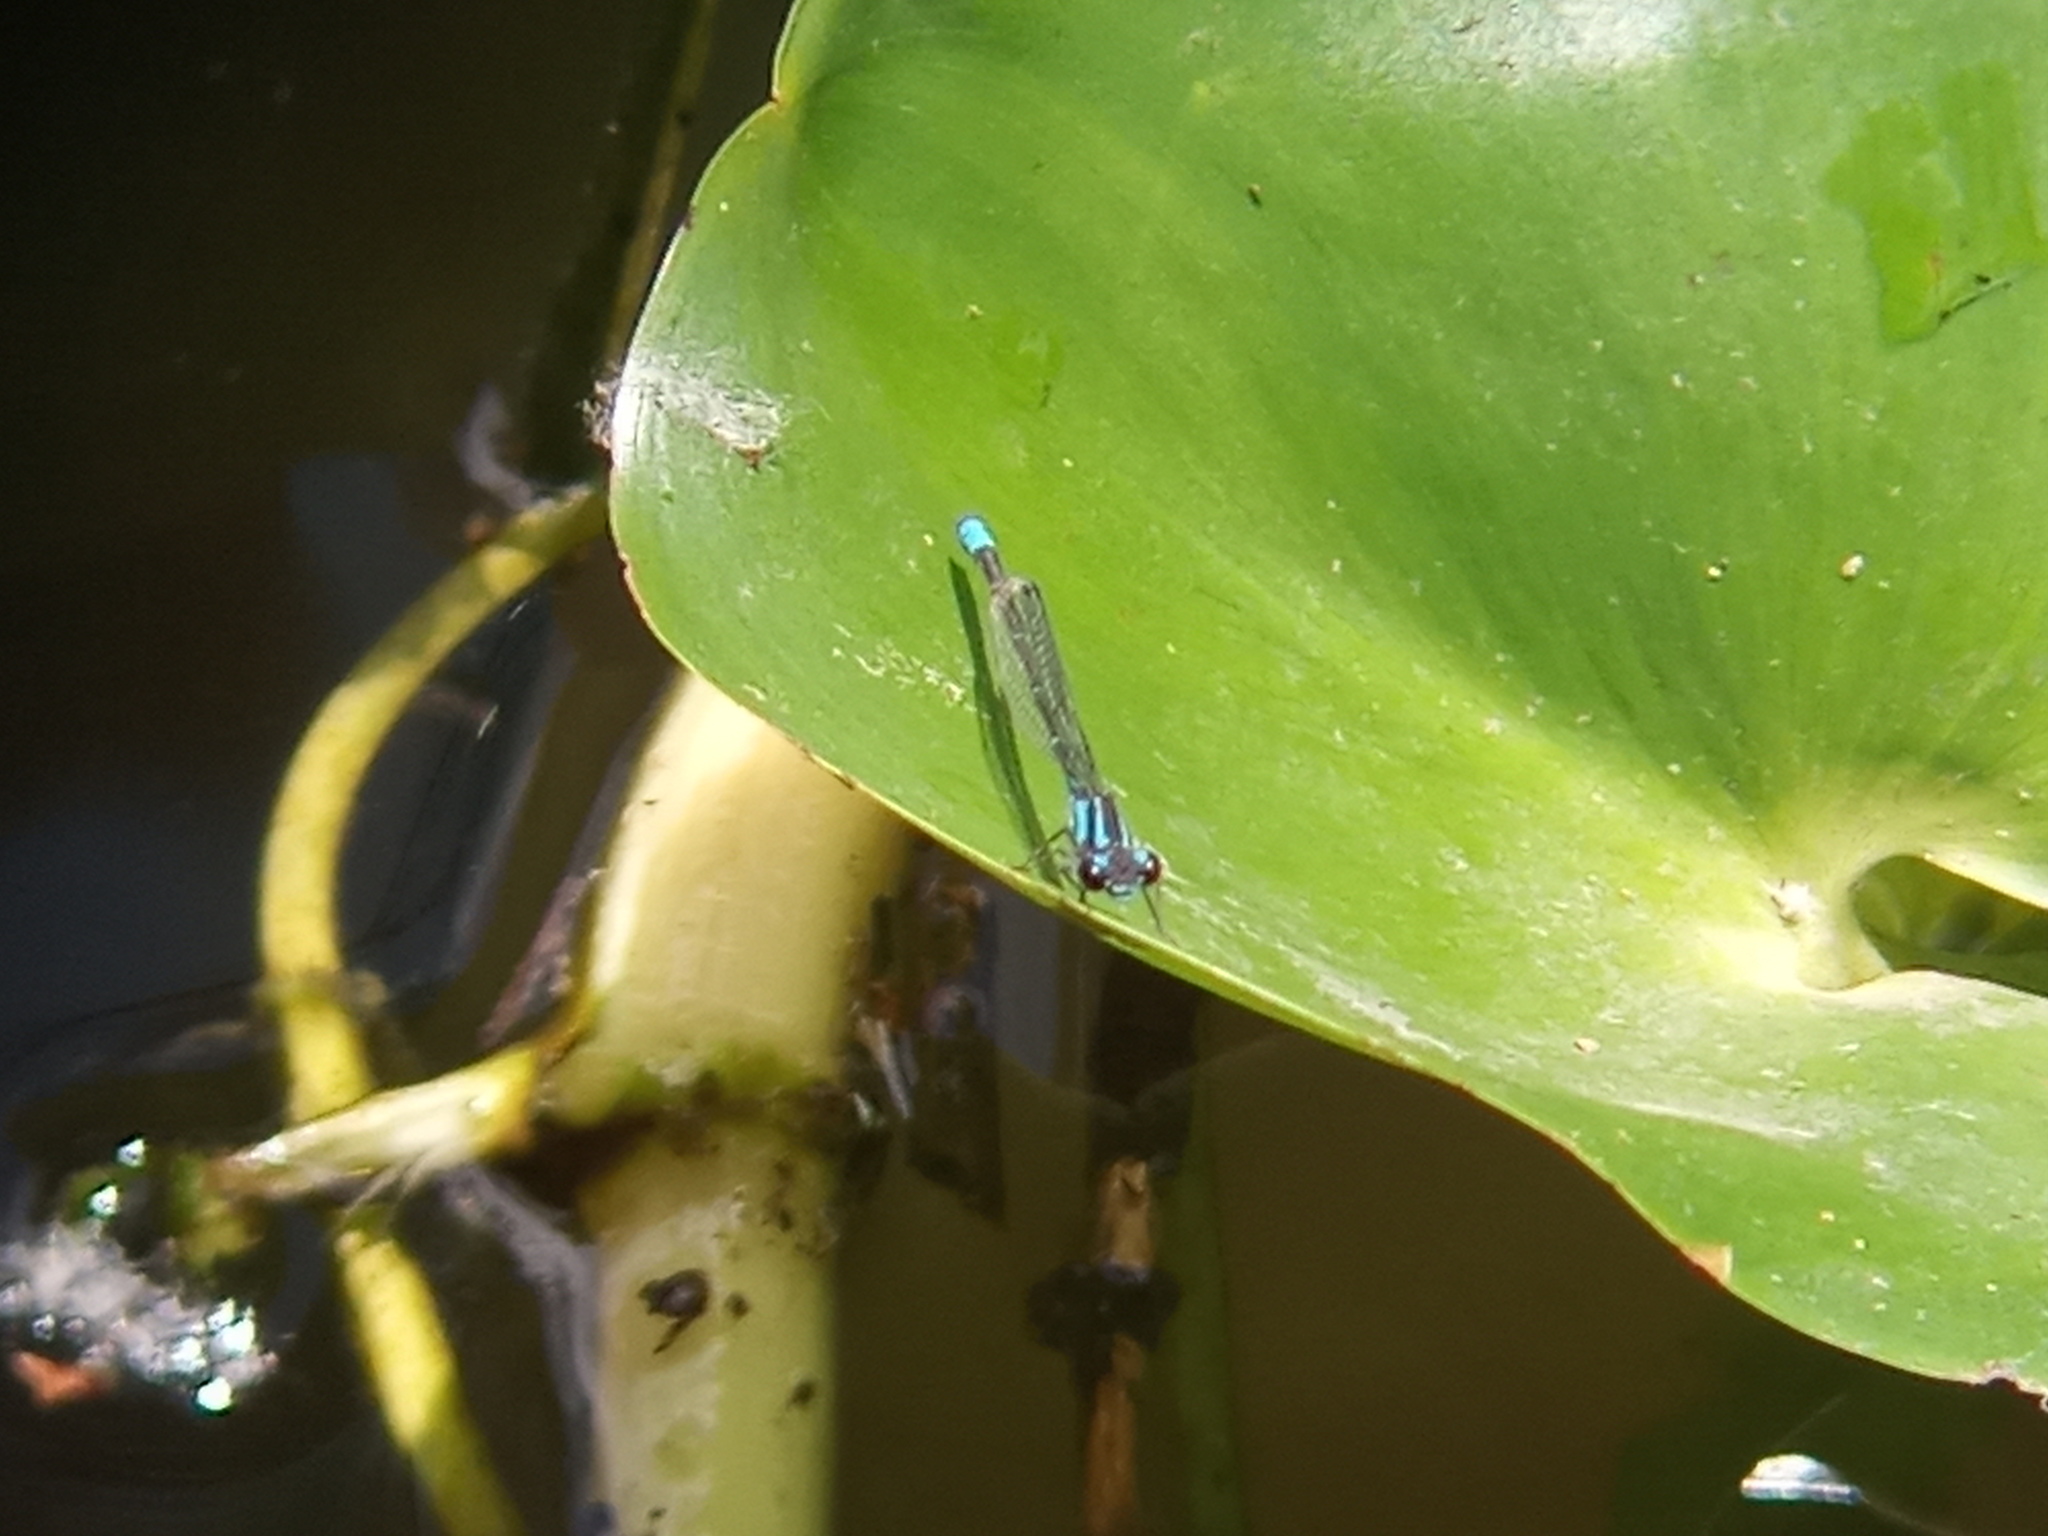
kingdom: Animalia
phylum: Arthropoda
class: Insecta
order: Odonata
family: Coenagrionidae
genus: Acanthagrion
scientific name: Acanthagrion lancea
